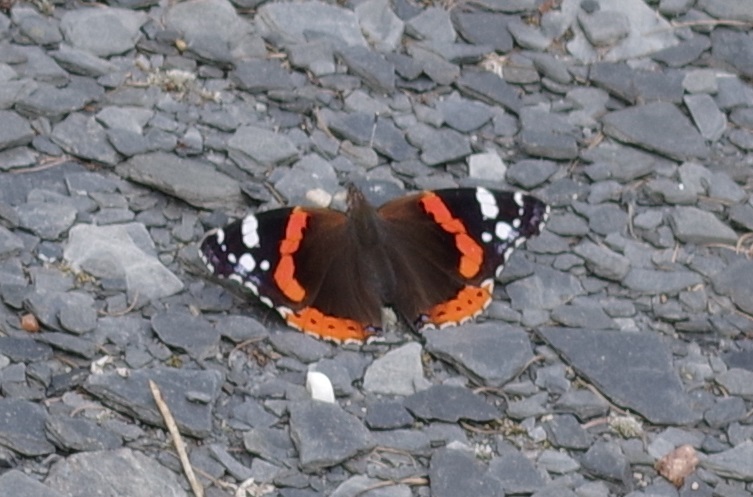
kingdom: Animalia
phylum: Arthropoda
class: Insecta
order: Lepidoptera
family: Nymphalidae
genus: Vanessa
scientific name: Vanessa atalanta
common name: Red admiral
